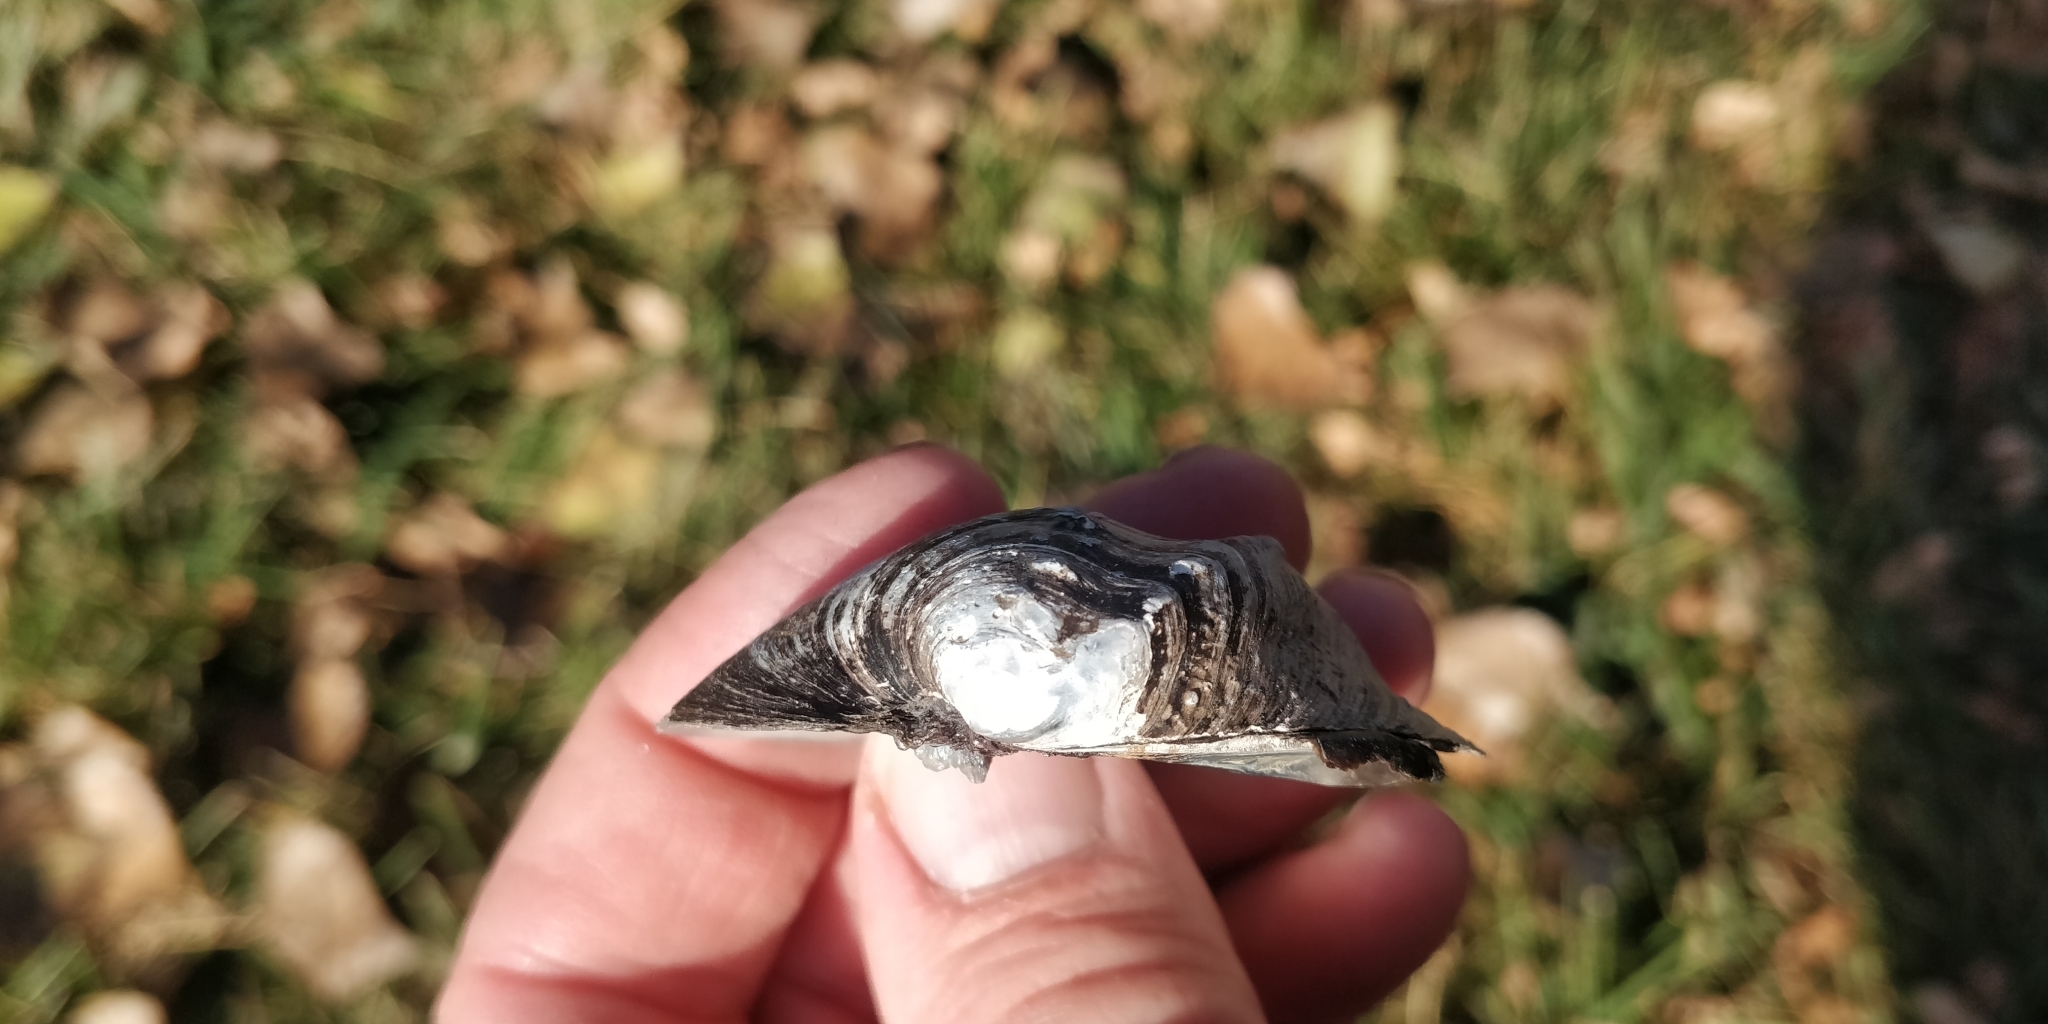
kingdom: Animalia
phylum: Mollusca
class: Bivalvia
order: Unionida
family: Unionidae
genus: Quadrula
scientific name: Quadrula quadrula
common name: Mapleleaf
